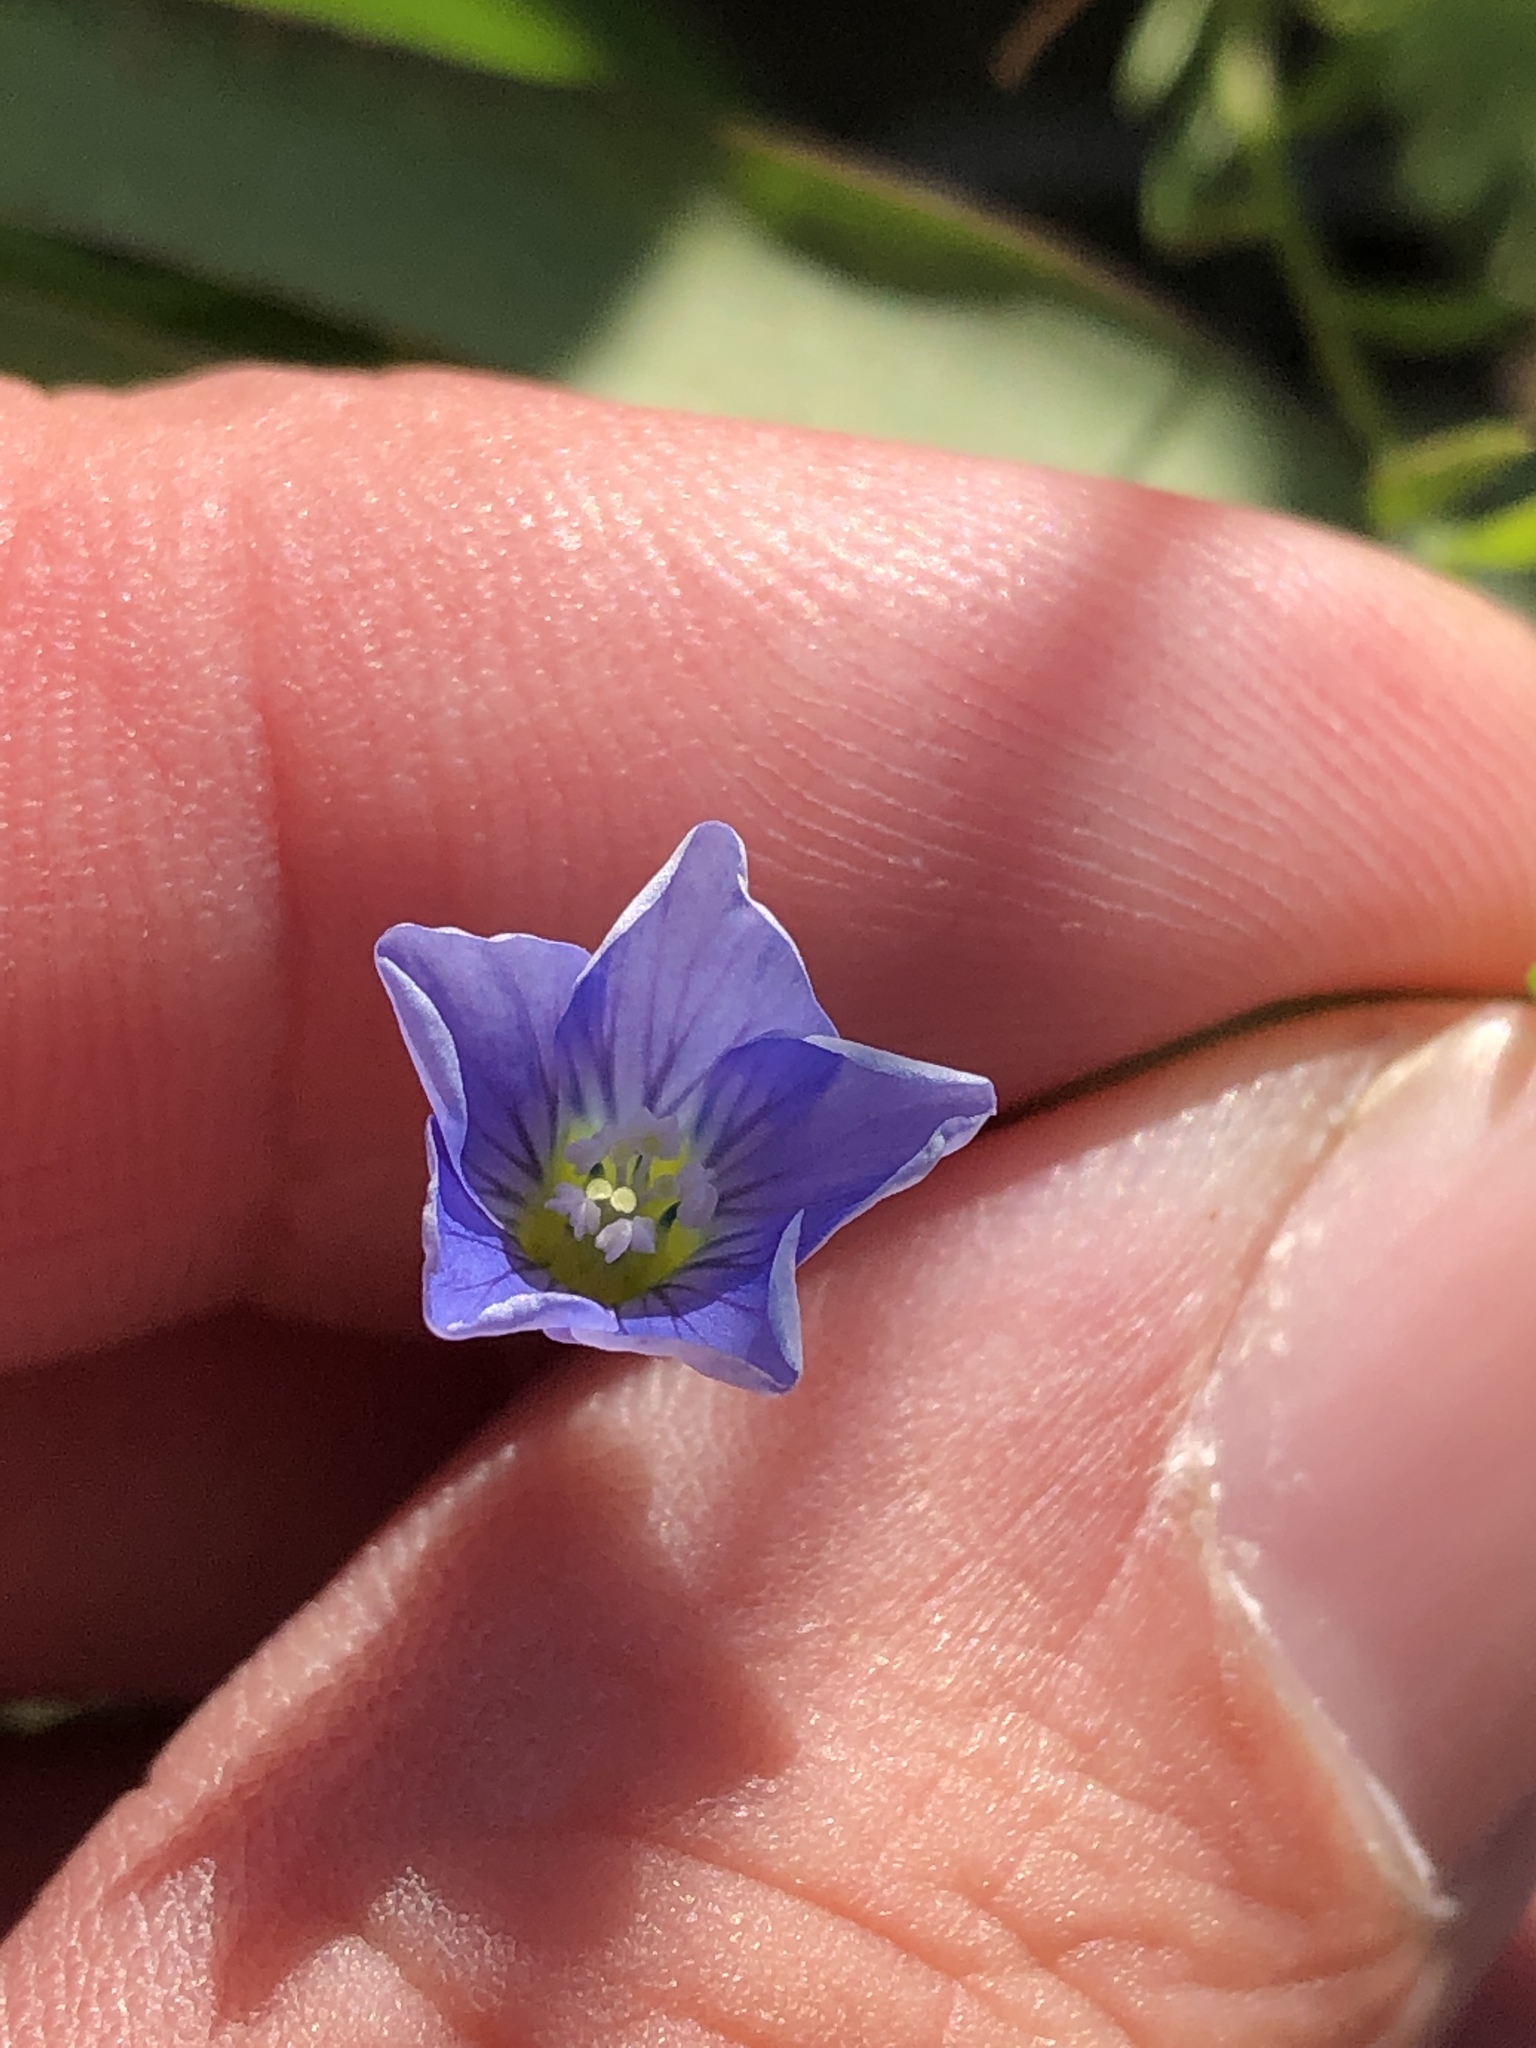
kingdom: Plantae
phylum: Tracheophyta
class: Magnoliopsida
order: Malpighiales
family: Linaceae
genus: Linum
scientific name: Linum pratense
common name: Norton's flax
